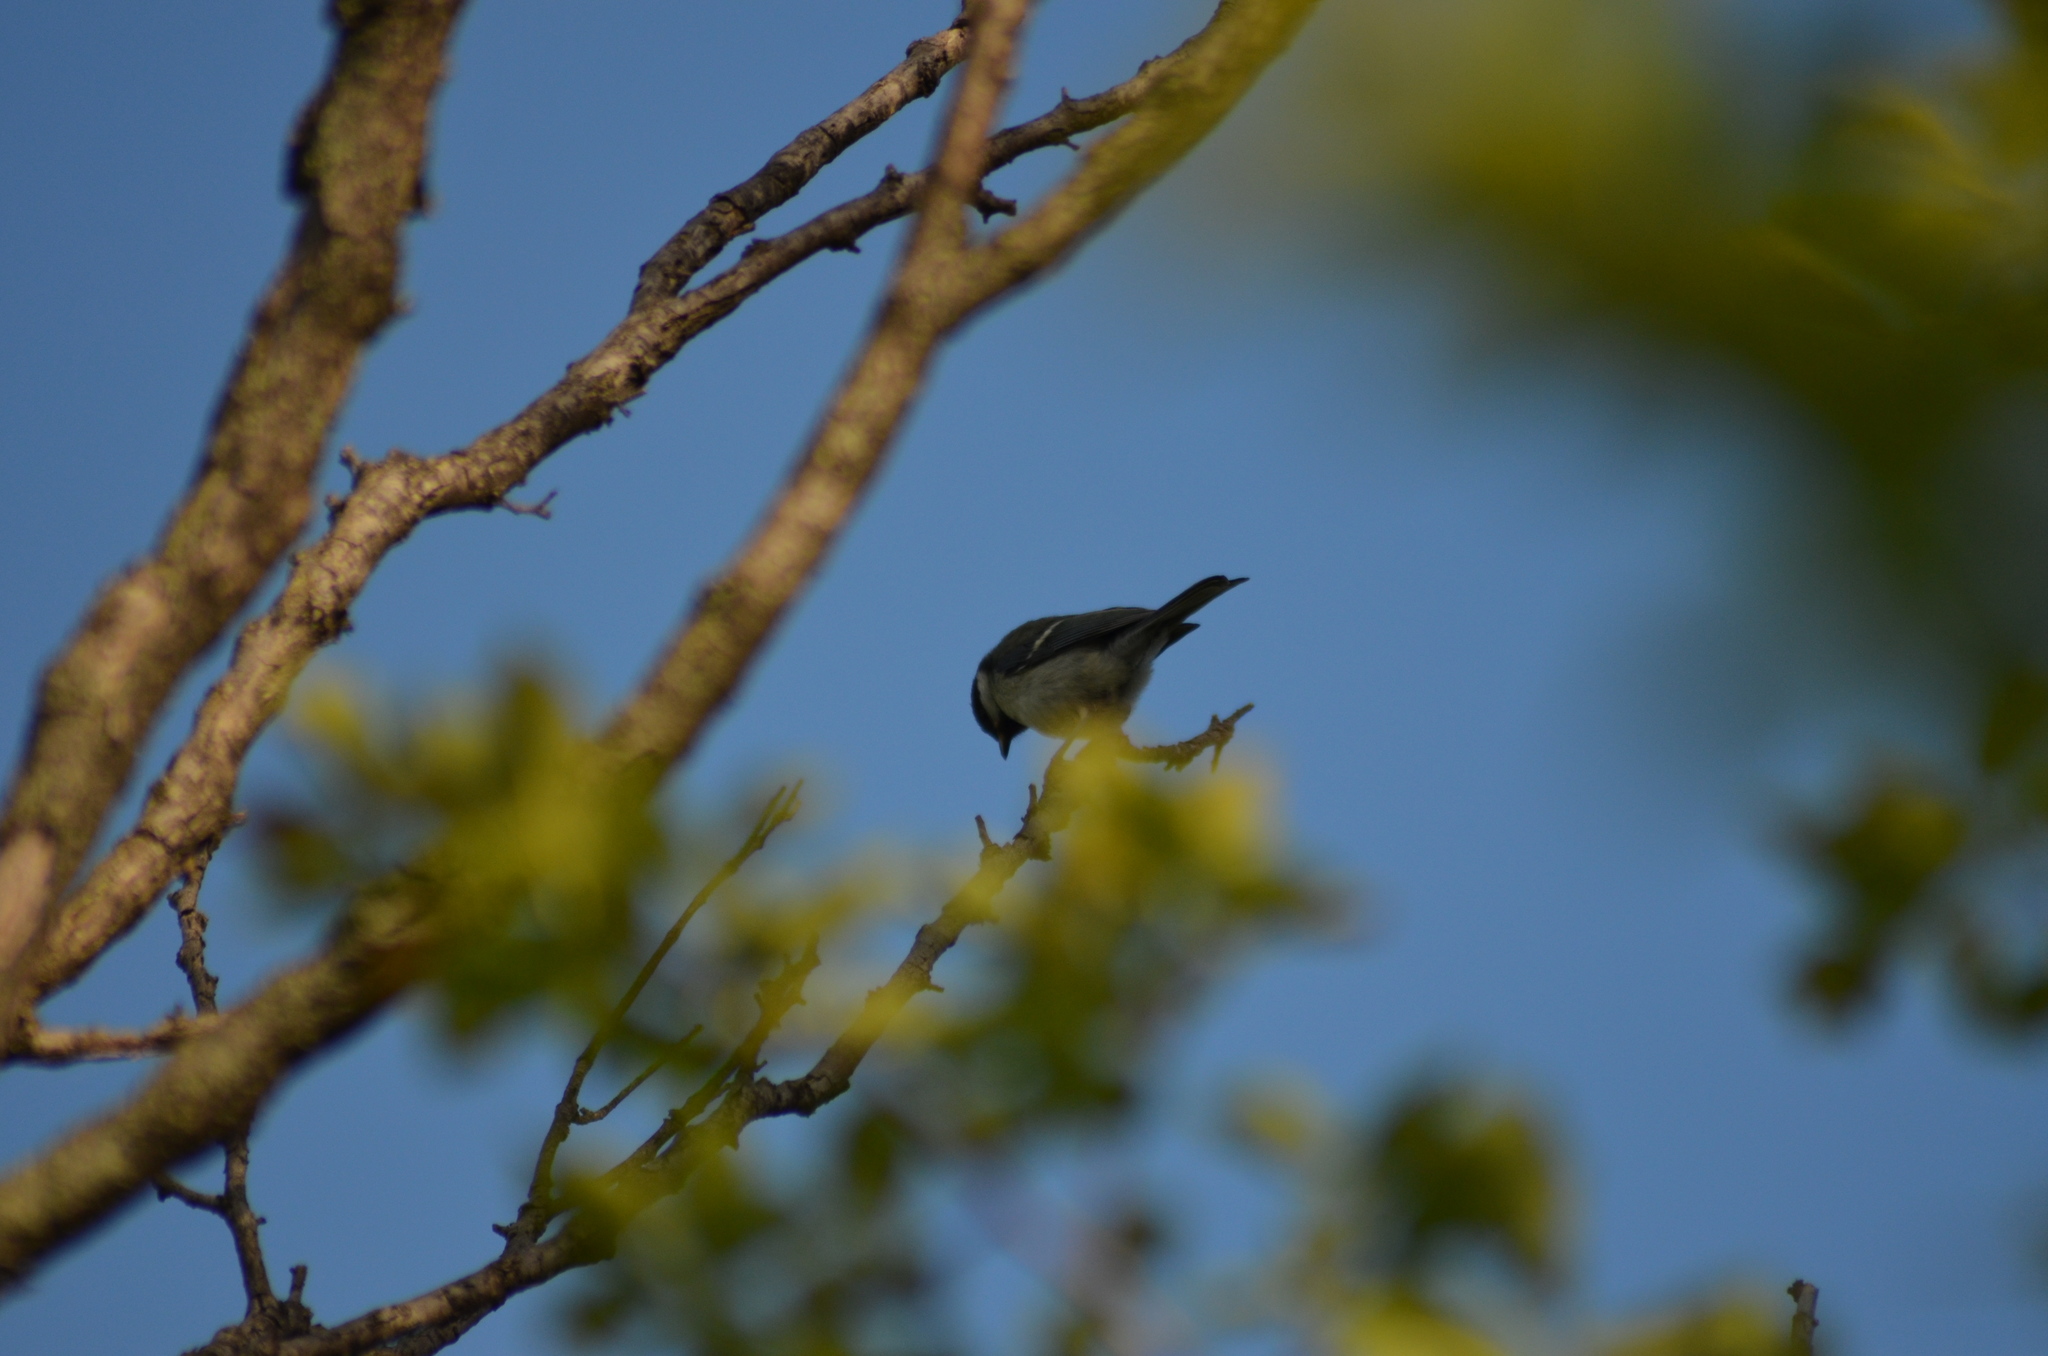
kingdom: Animalia
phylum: Chordata
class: Aves
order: Passeriformes
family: Paridae
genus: Parus
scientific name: Parus major
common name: Great tit
